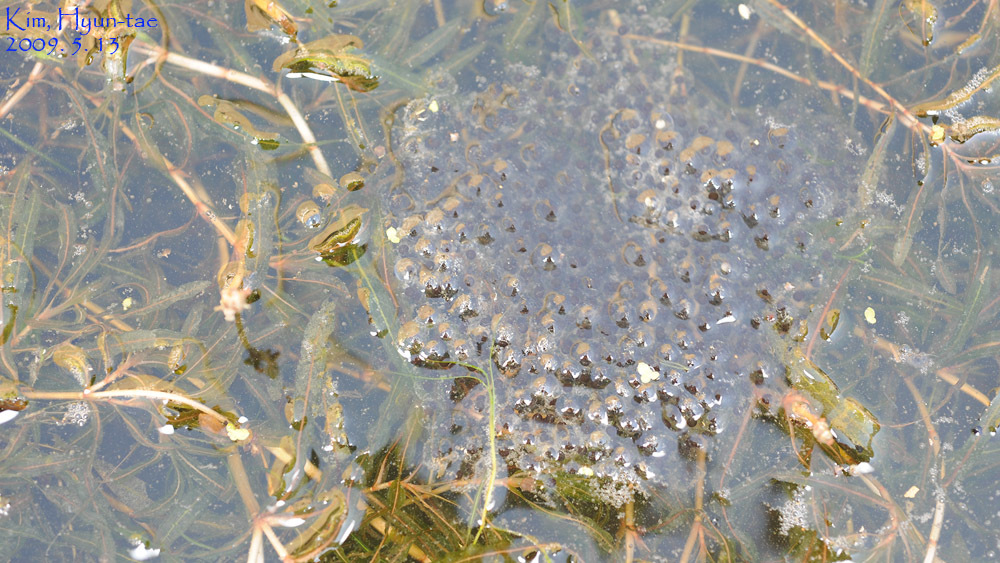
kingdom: Animalia
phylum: Chordata
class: Amphibia
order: Anura
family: Ranidae
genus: Pelophylax
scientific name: Pelophylax nigromaculatus
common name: Black-spotted pond frog
